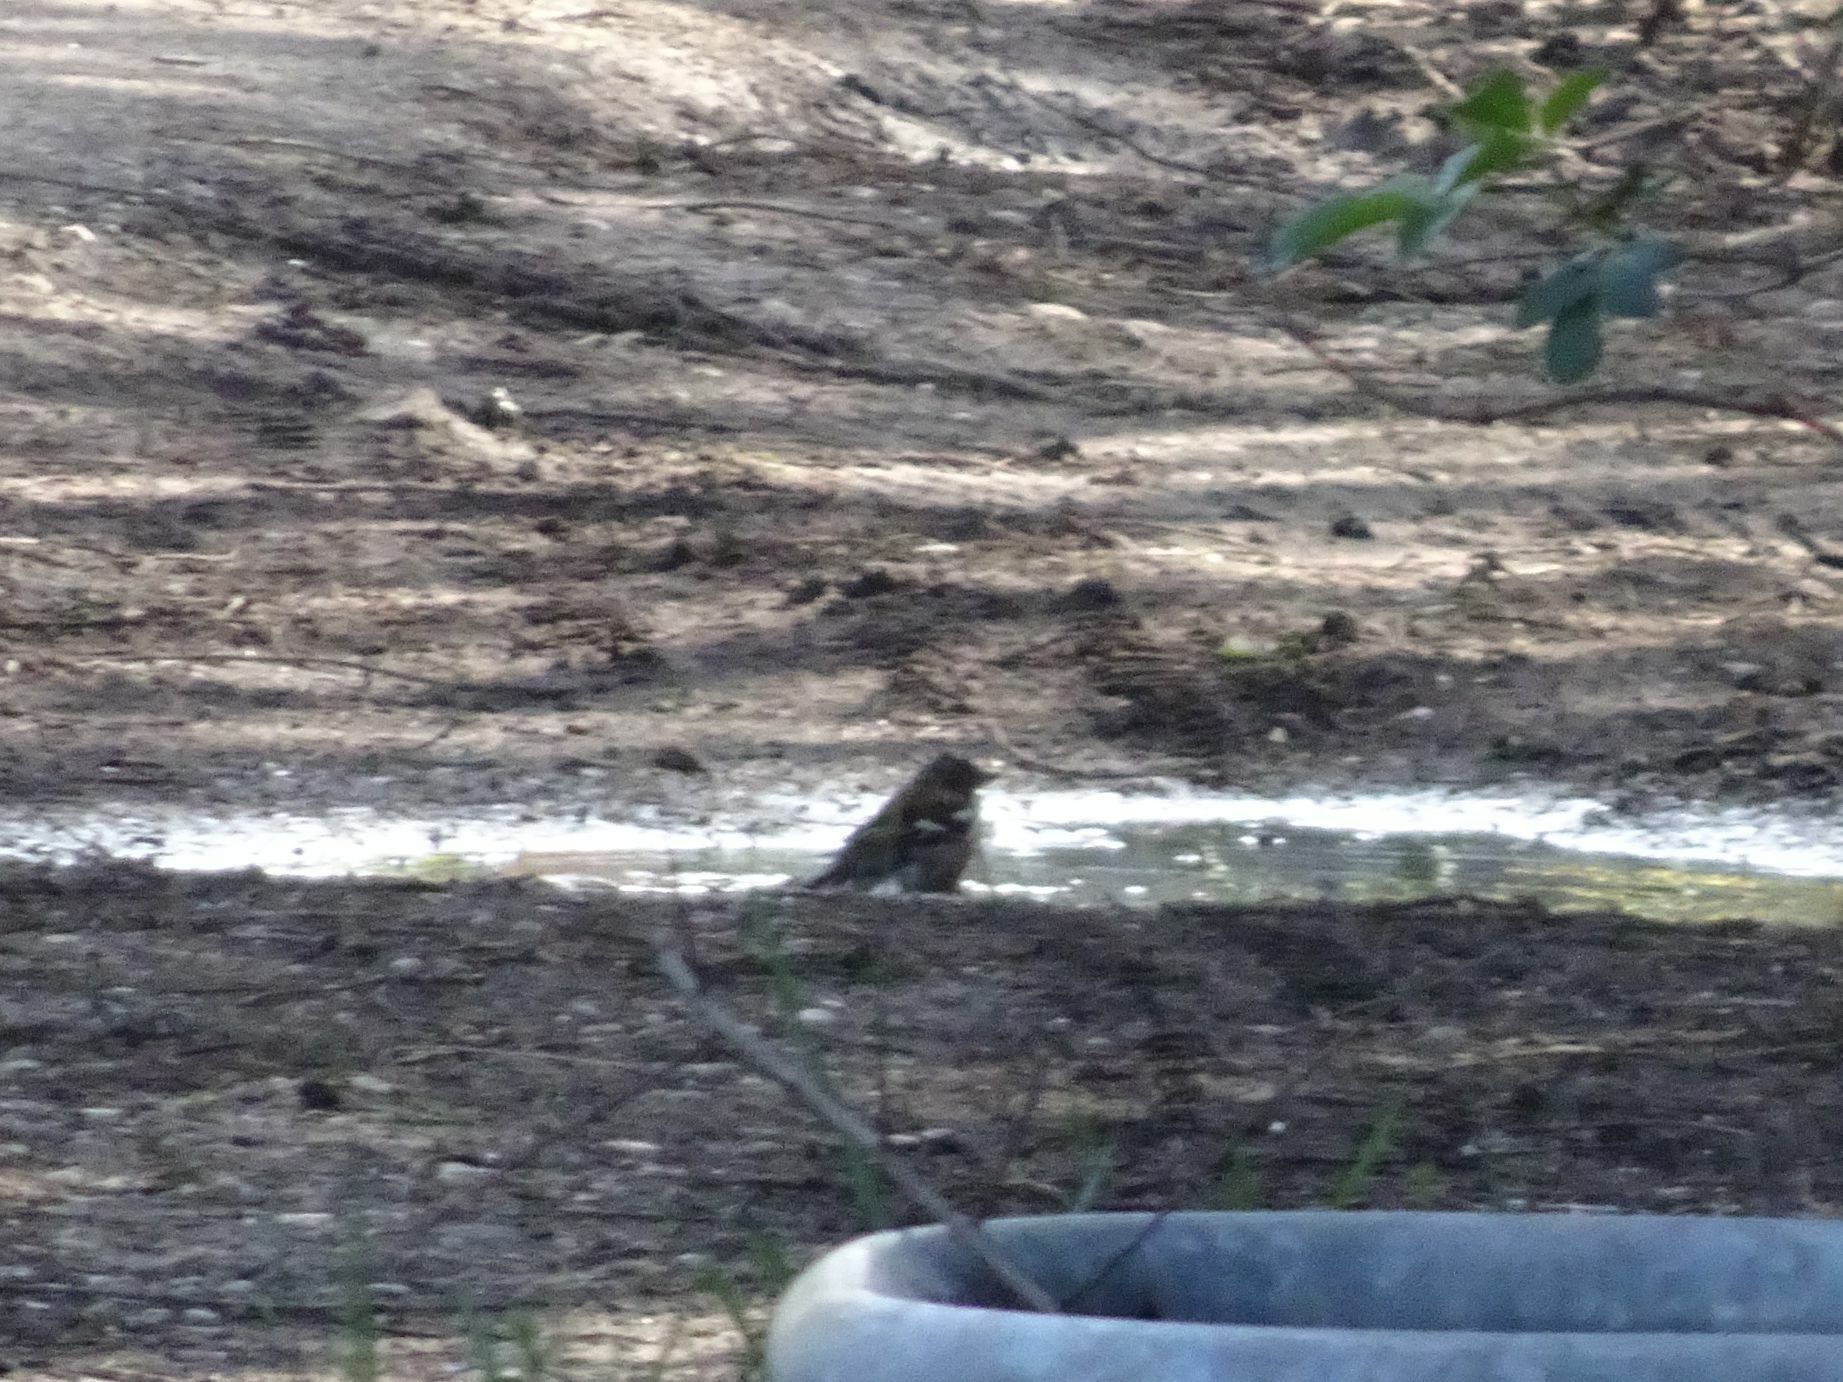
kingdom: Animalia
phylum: Chordata
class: Aves
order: Passeriformes
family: Fringillidae
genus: Fringilla
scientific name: Fringilla coelebs
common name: Common chaffinch
